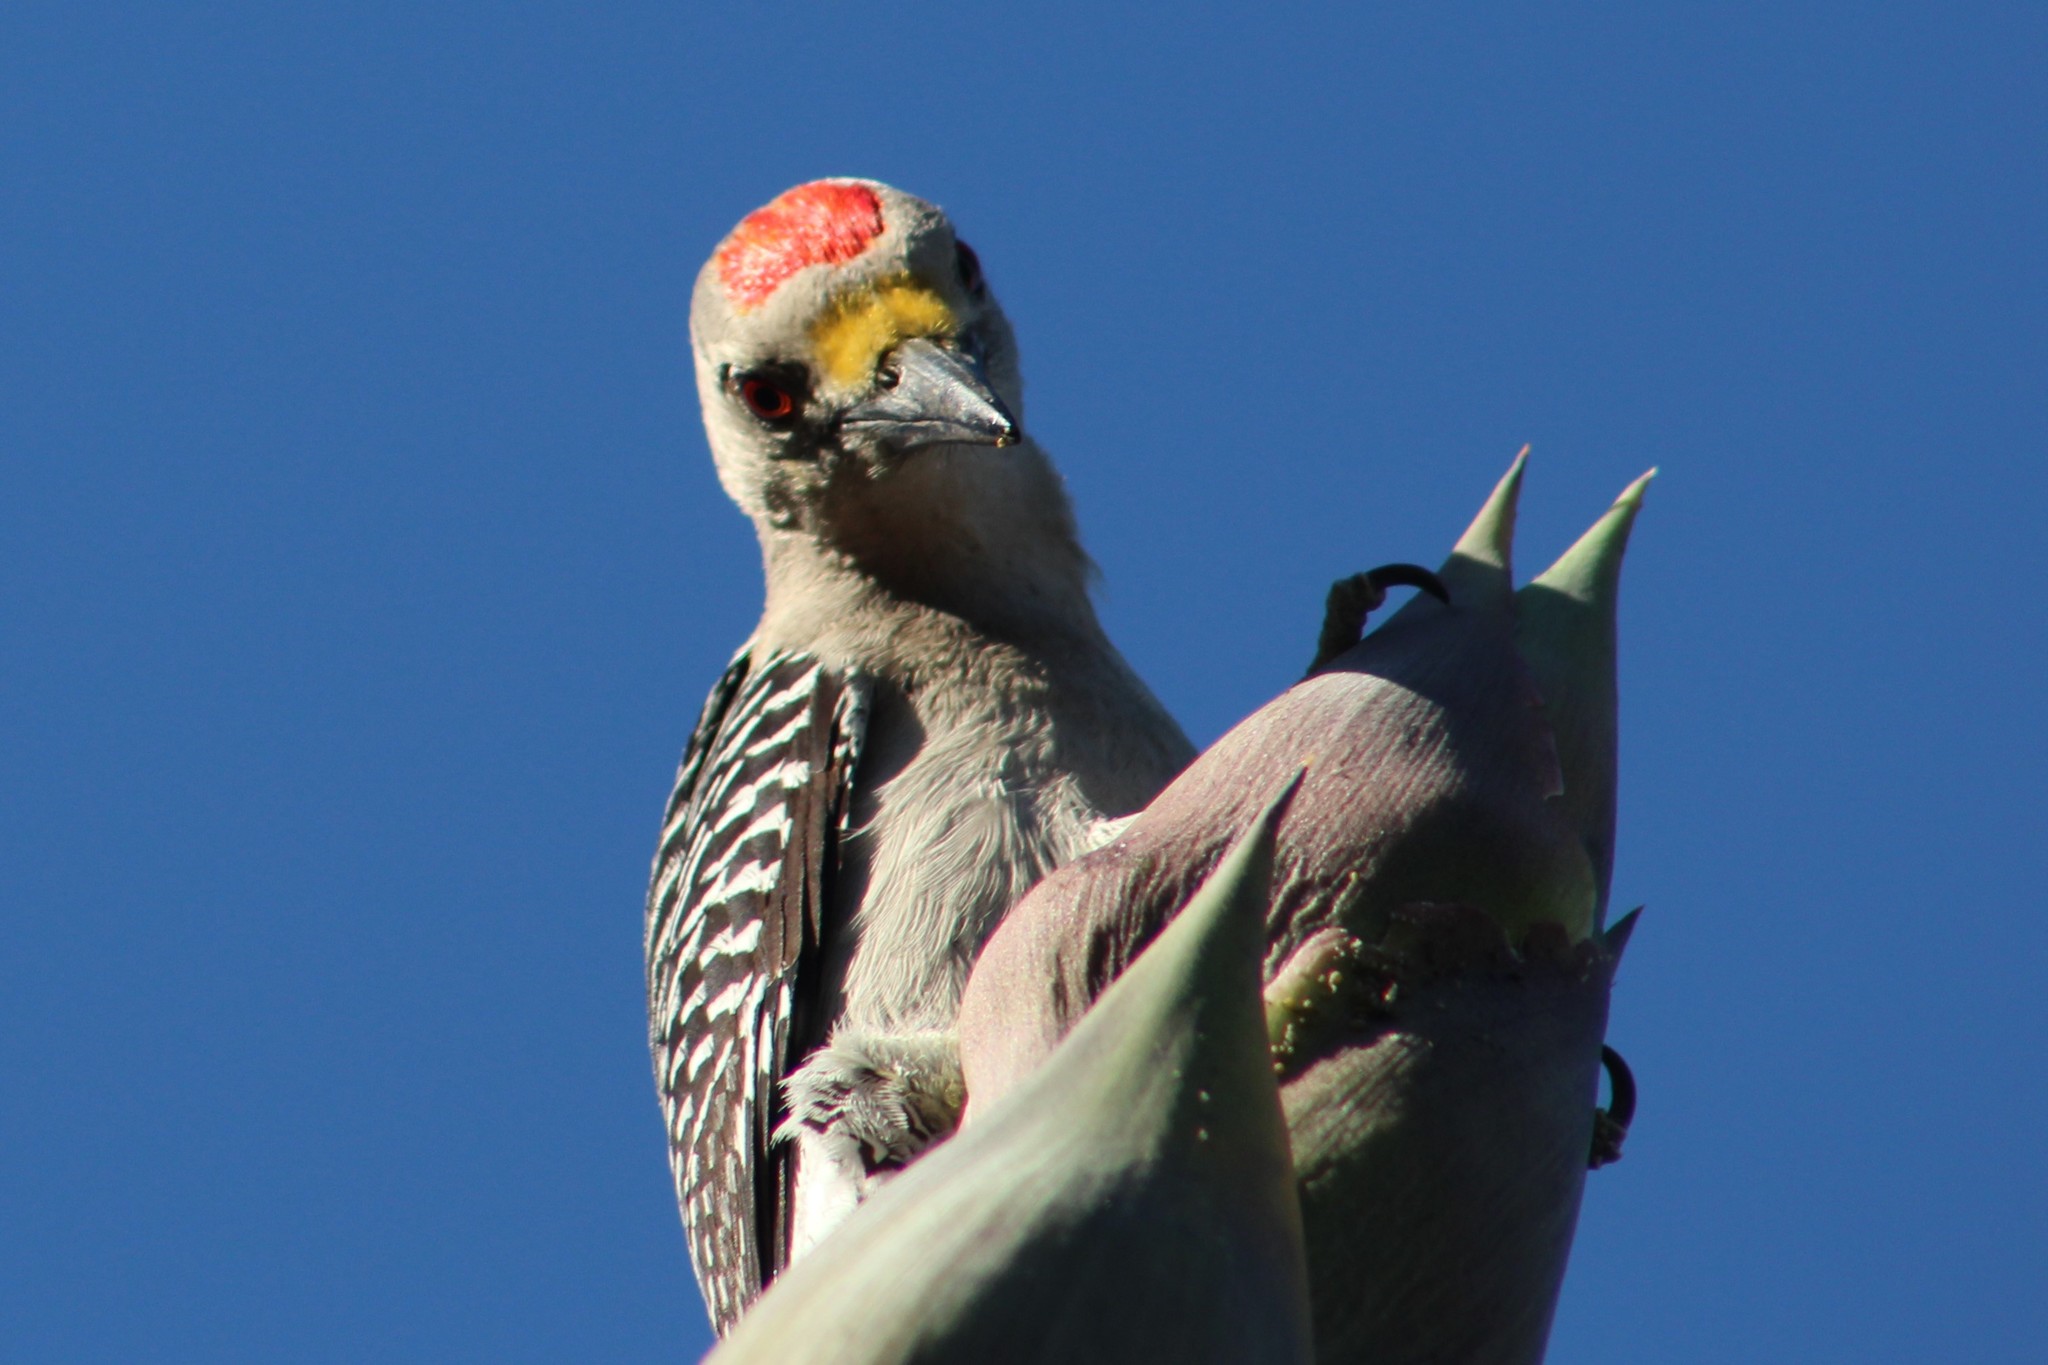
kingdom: Animalia
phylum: Chordata
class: Aves
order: Piciformes
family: Picidae
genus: Melanerpes
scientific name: Melanerpes aurifrons
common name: Golden-fronted woodpecker
